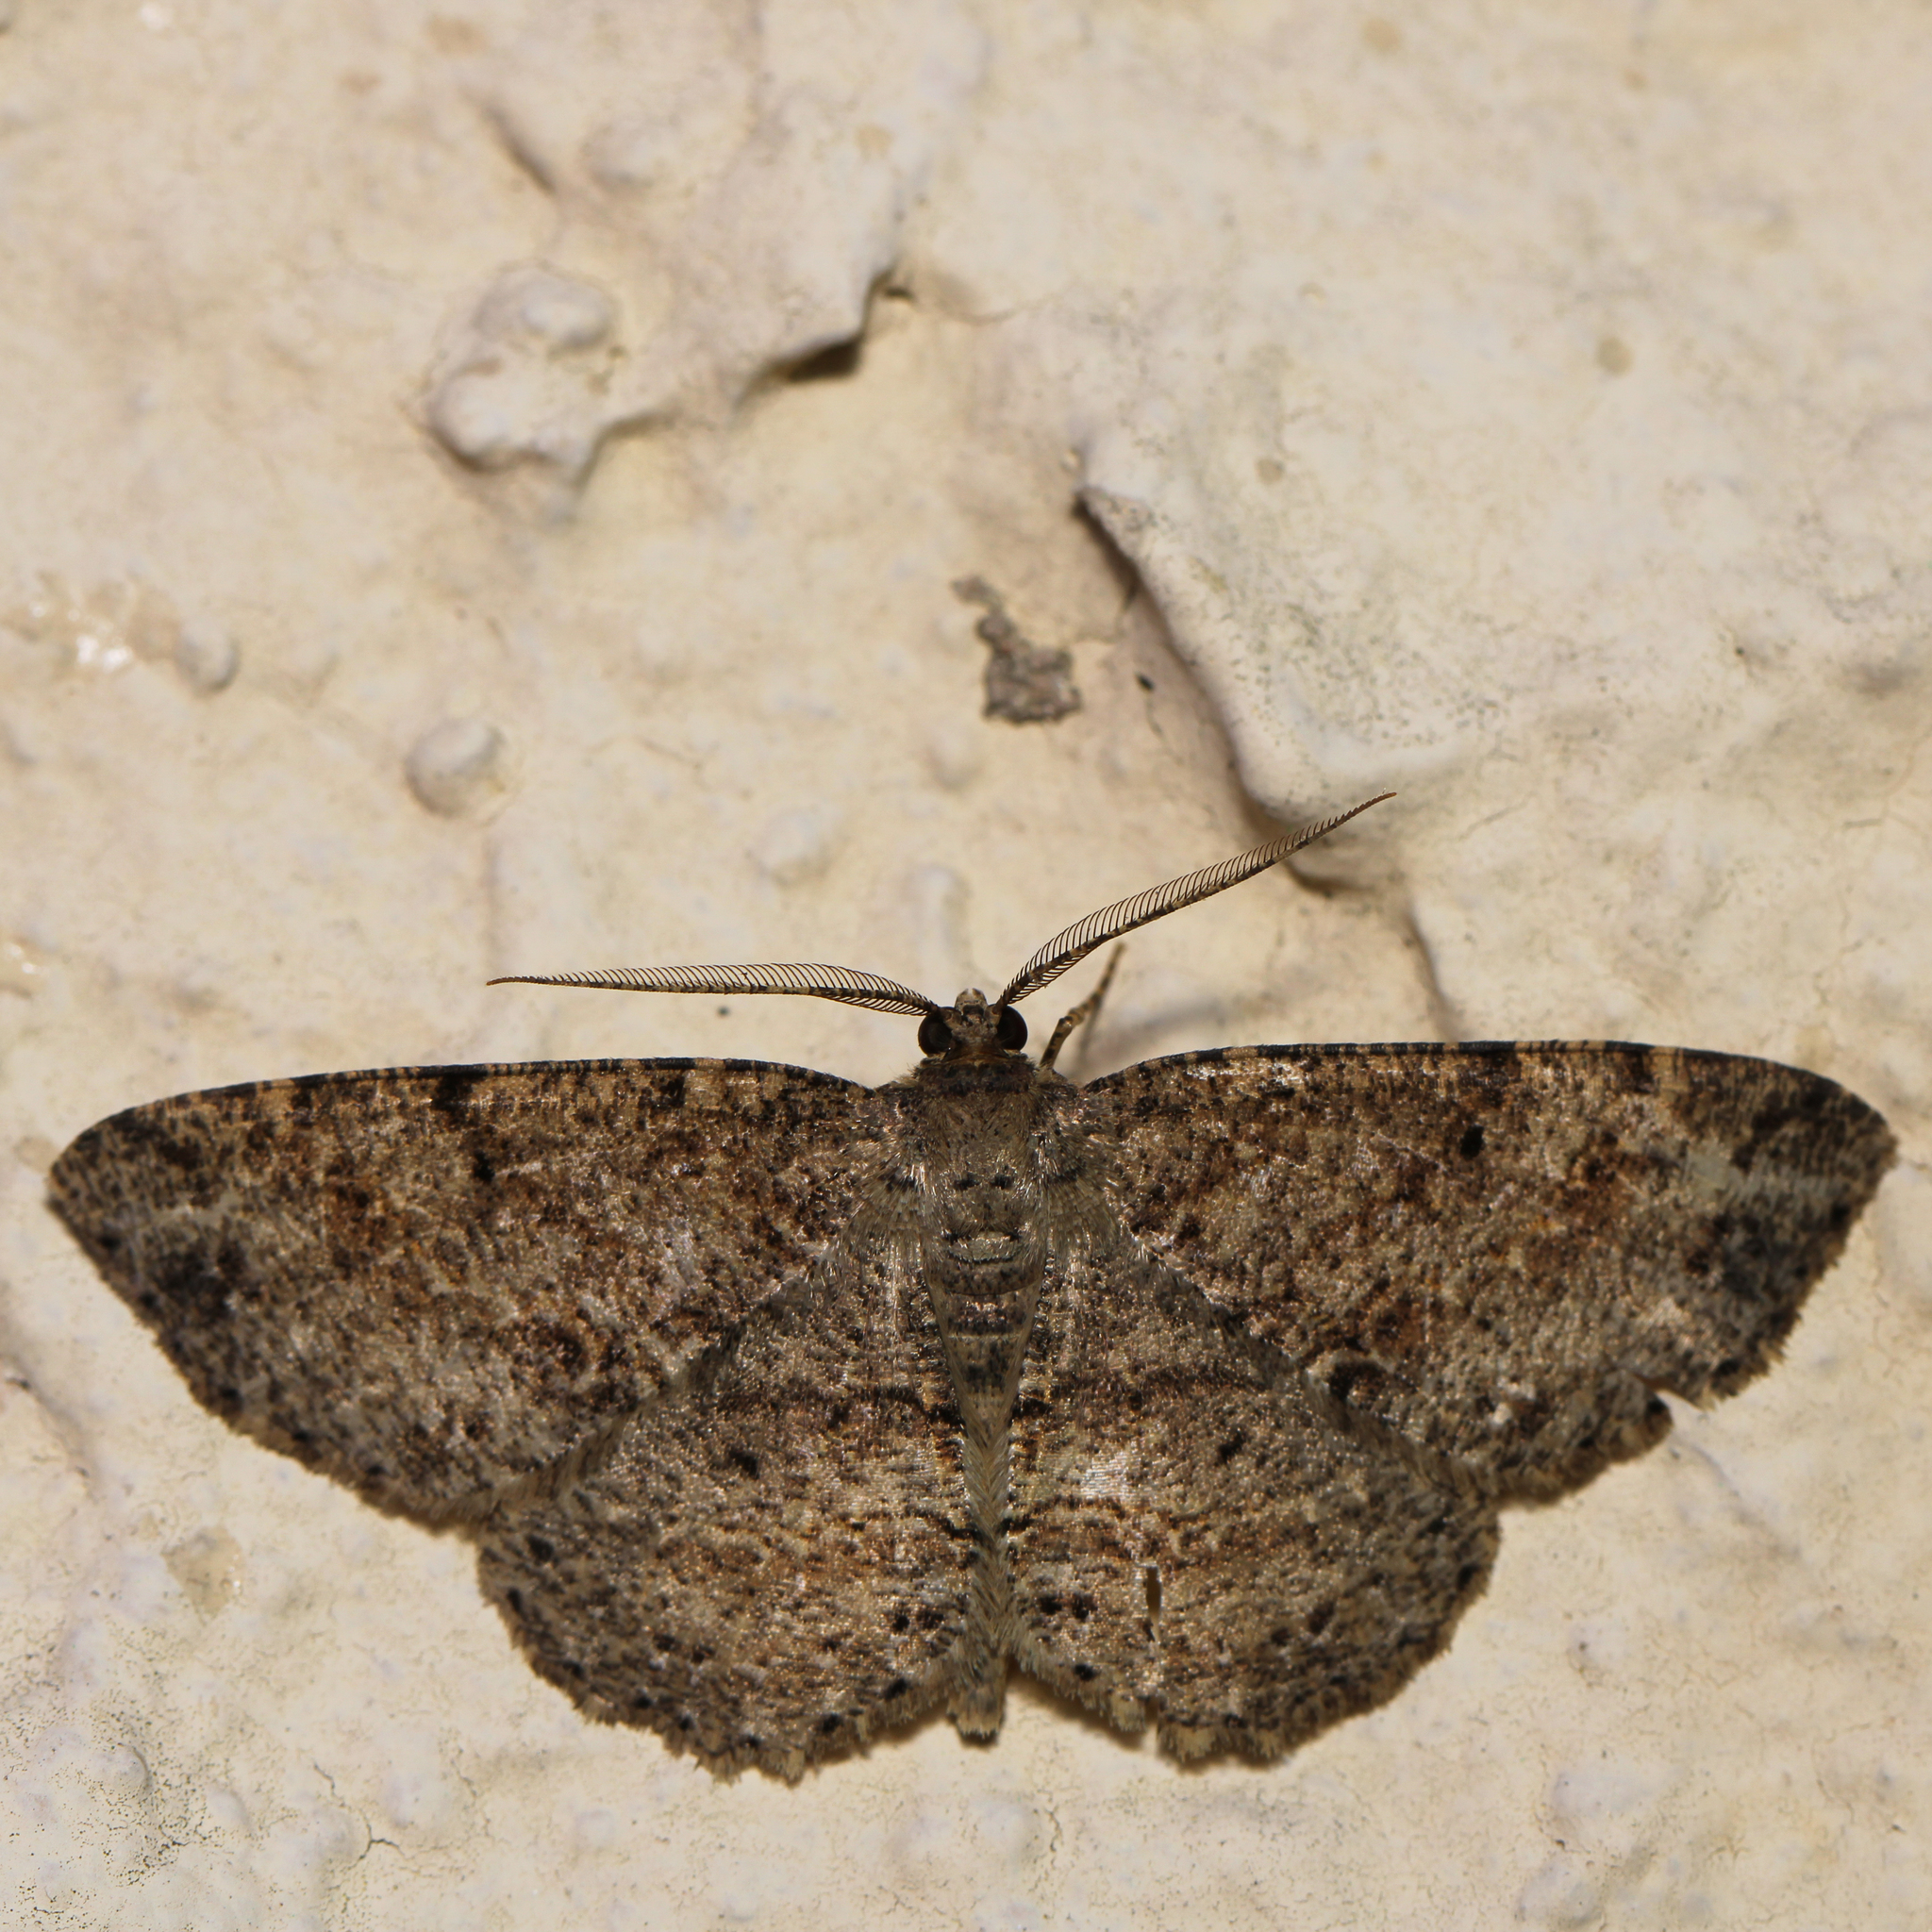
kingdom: Animalia
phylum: Arthropoda
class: Insecta
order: Lepidoptera
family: Geometridae
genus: Melanolophia
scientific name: Melanolophia canadaria
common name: Canadian melanolophia
